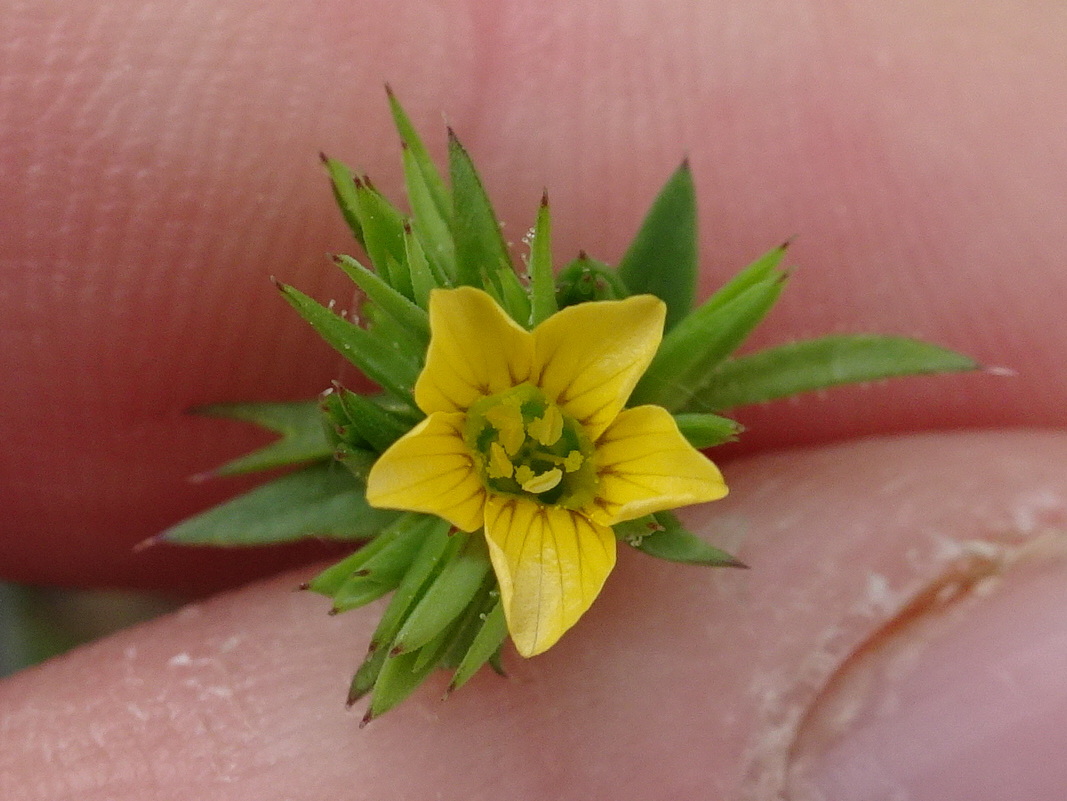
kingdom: Plantae
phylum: Tracheophyta
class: Magnoliopsida
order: Malpighiales
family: Linaceae
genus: Linum
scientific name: Linum strictum
